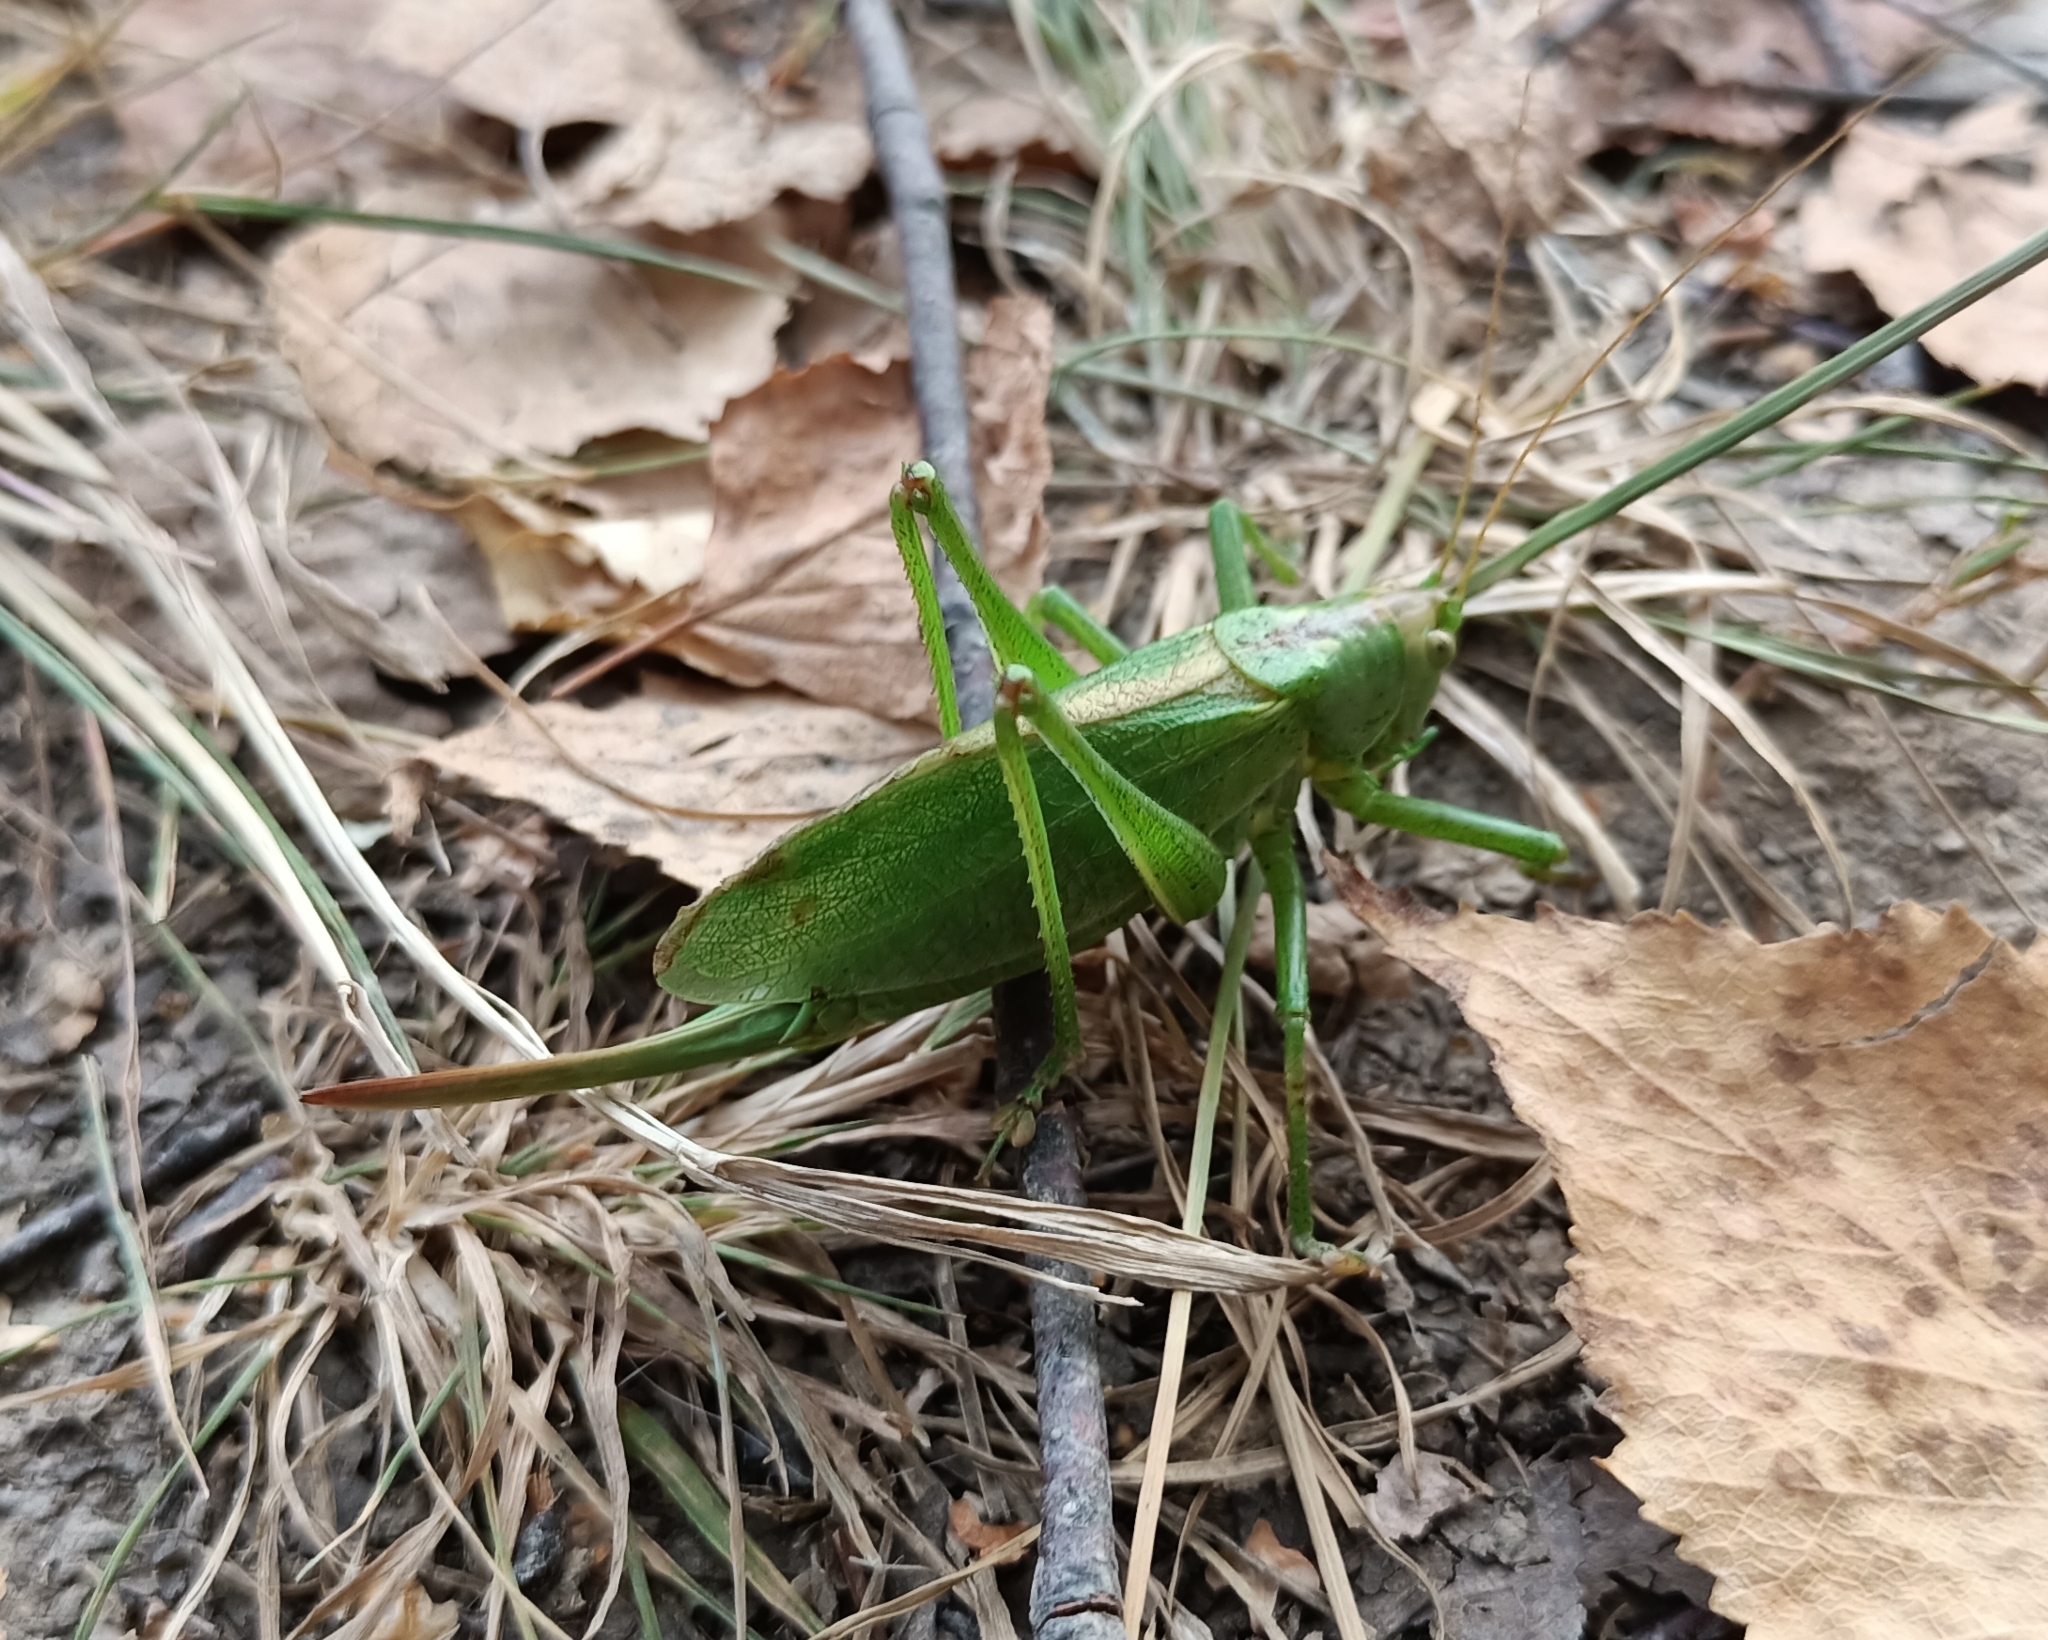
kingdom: Animalia
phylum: Arthropoda
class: Insecta
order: Orthoptera
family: Tettigoniidae
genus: Tettigonia
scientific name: Tettigonia cantans
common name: Upland green bush-cricket
